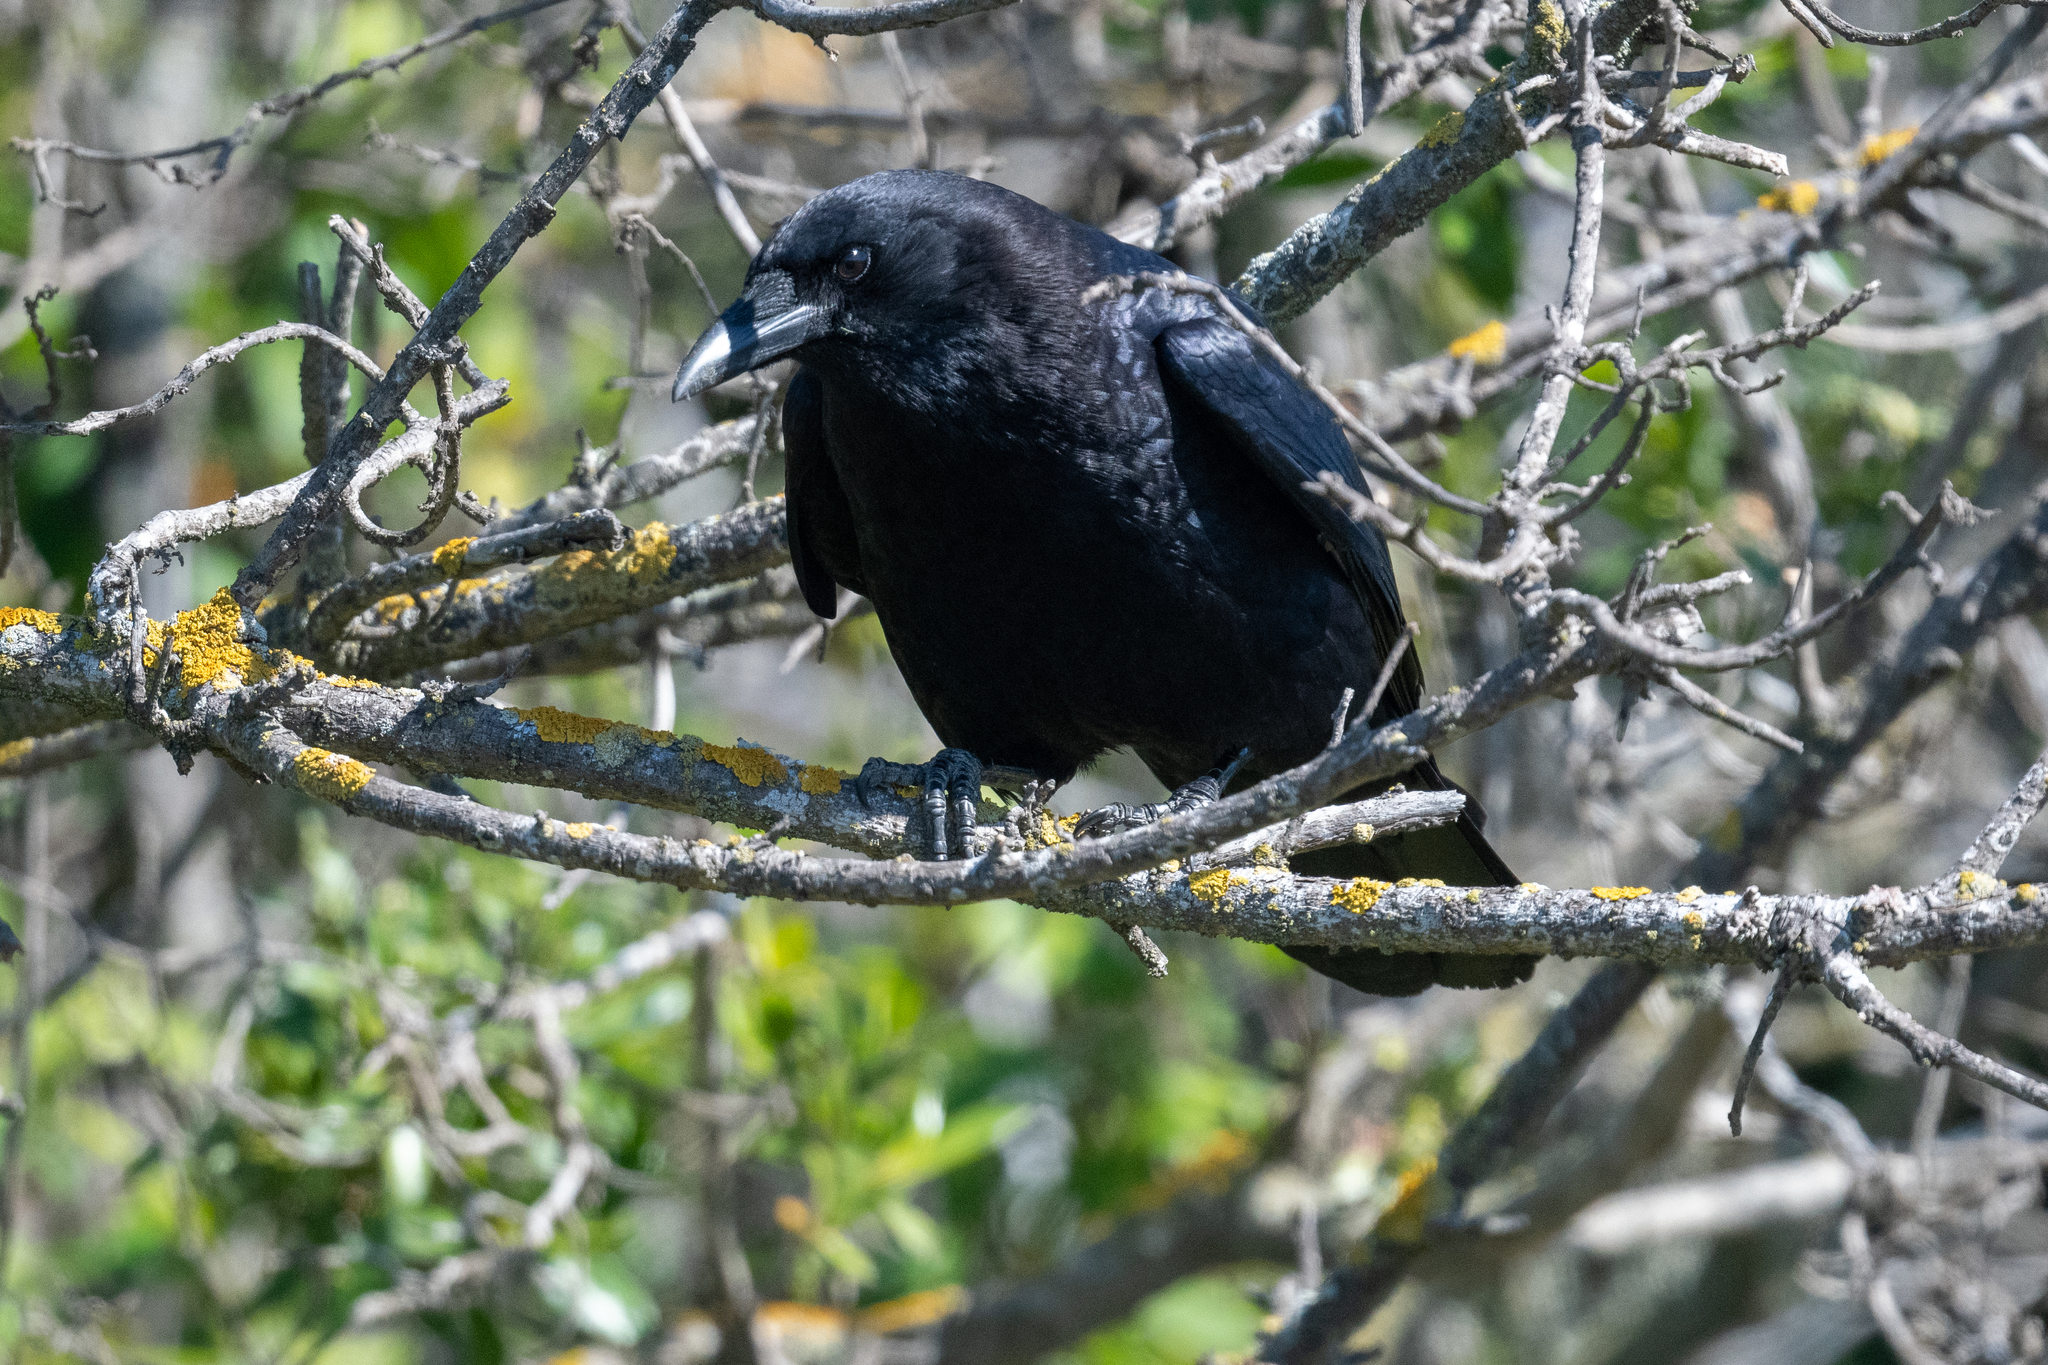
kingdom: Animalia
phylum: Chordata
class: Aves
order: Passeriformes
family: Corvidae
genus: Corvus
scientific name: Corvus brachyrhynchos
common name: American crow
